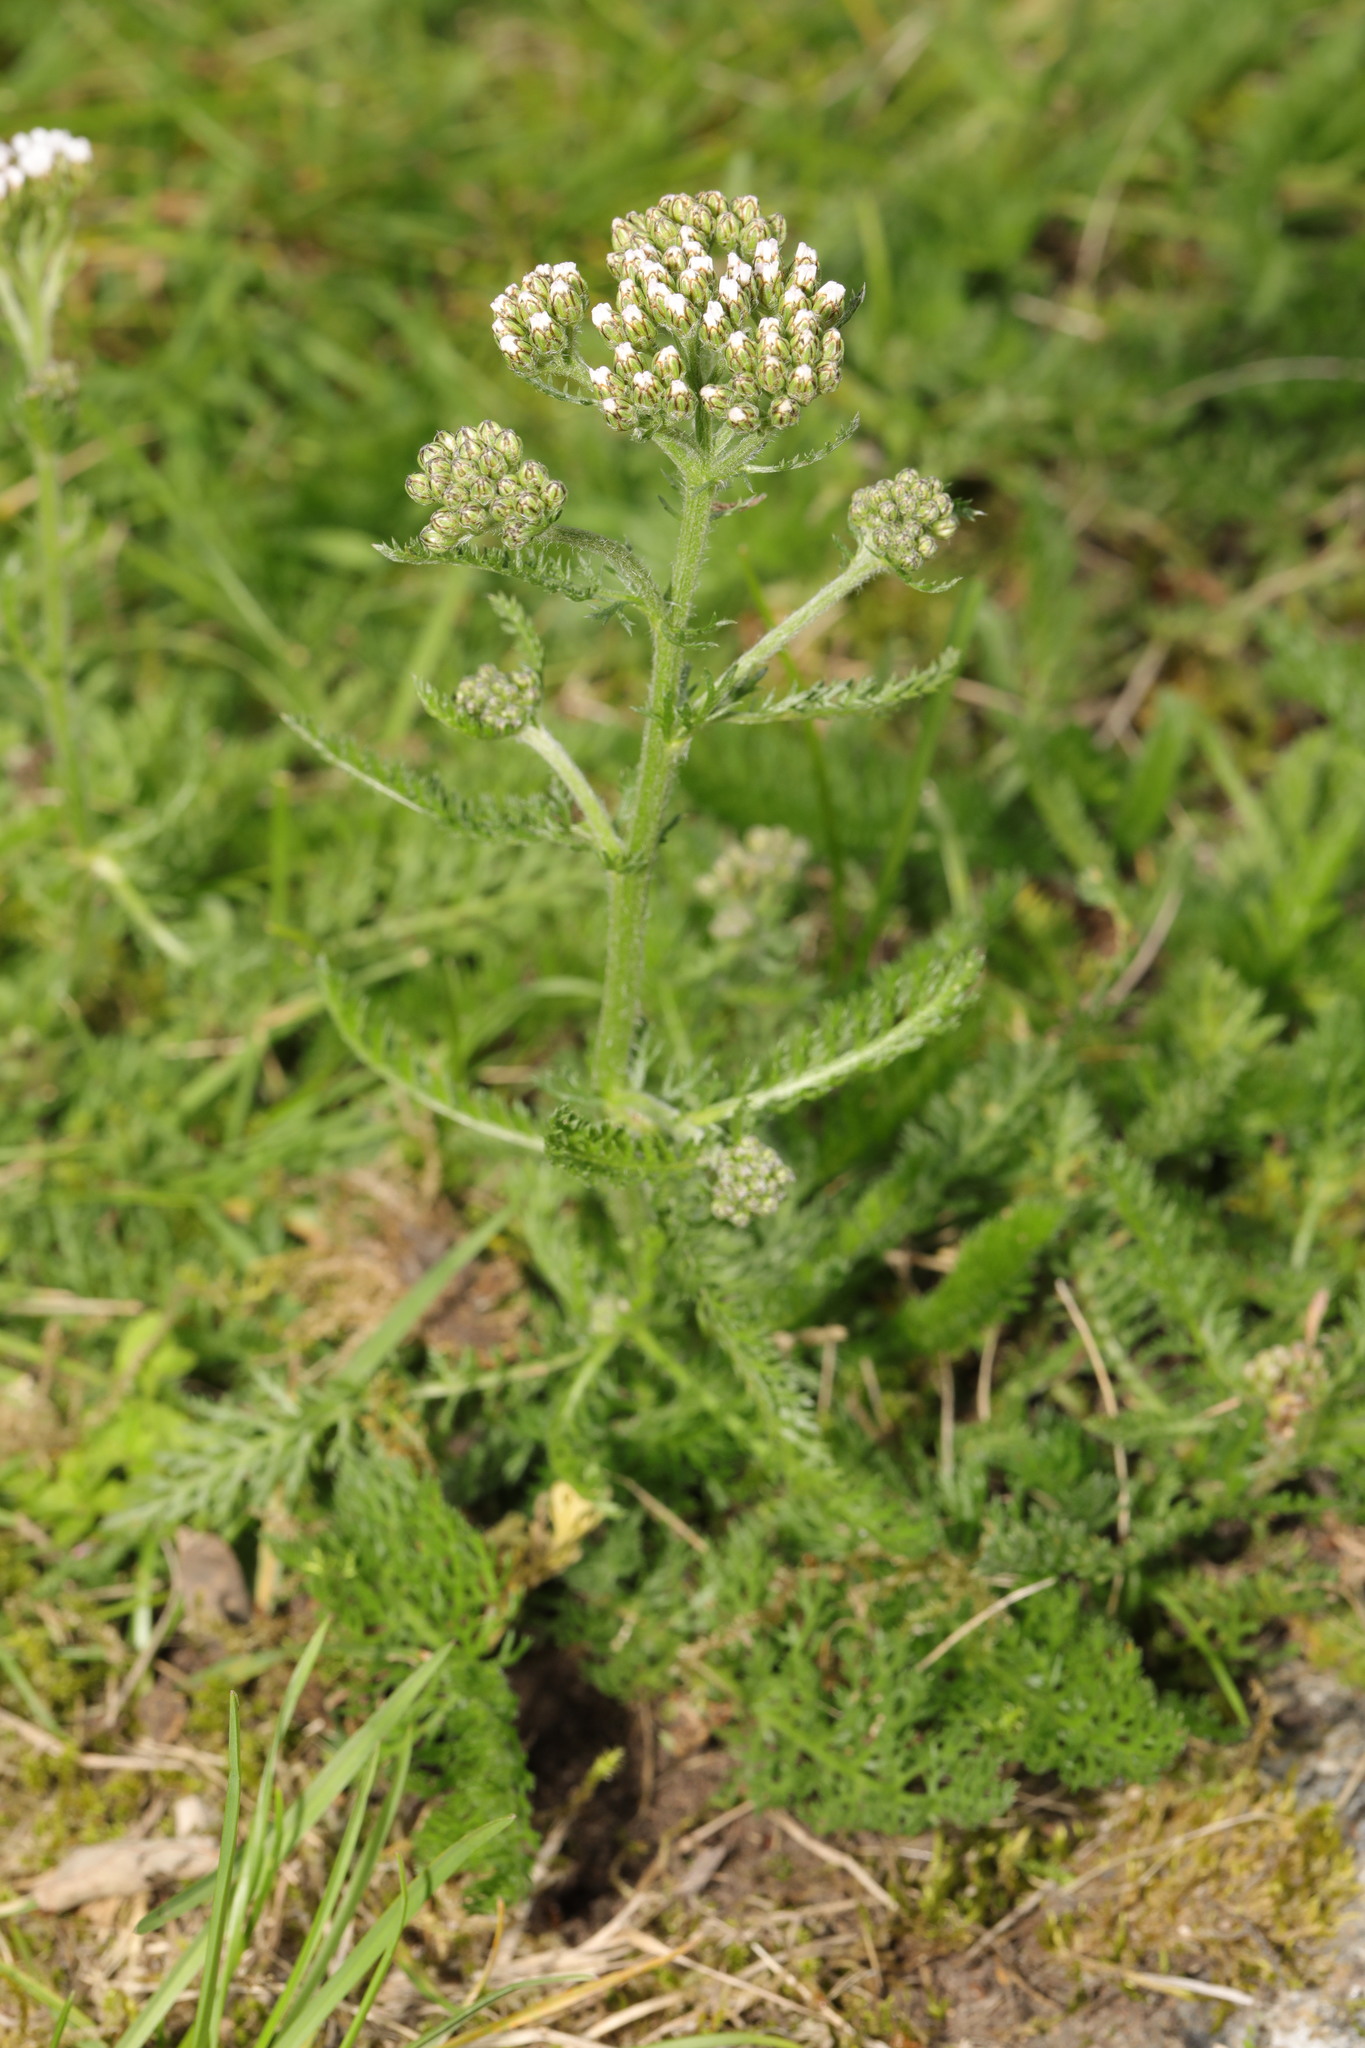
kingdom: Plantae
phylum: Tracheophyta
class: Magnoliopsida
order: Asterales
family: Asteraceae
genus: Achillea
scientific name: Achillea millefolium
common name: Yarrow
